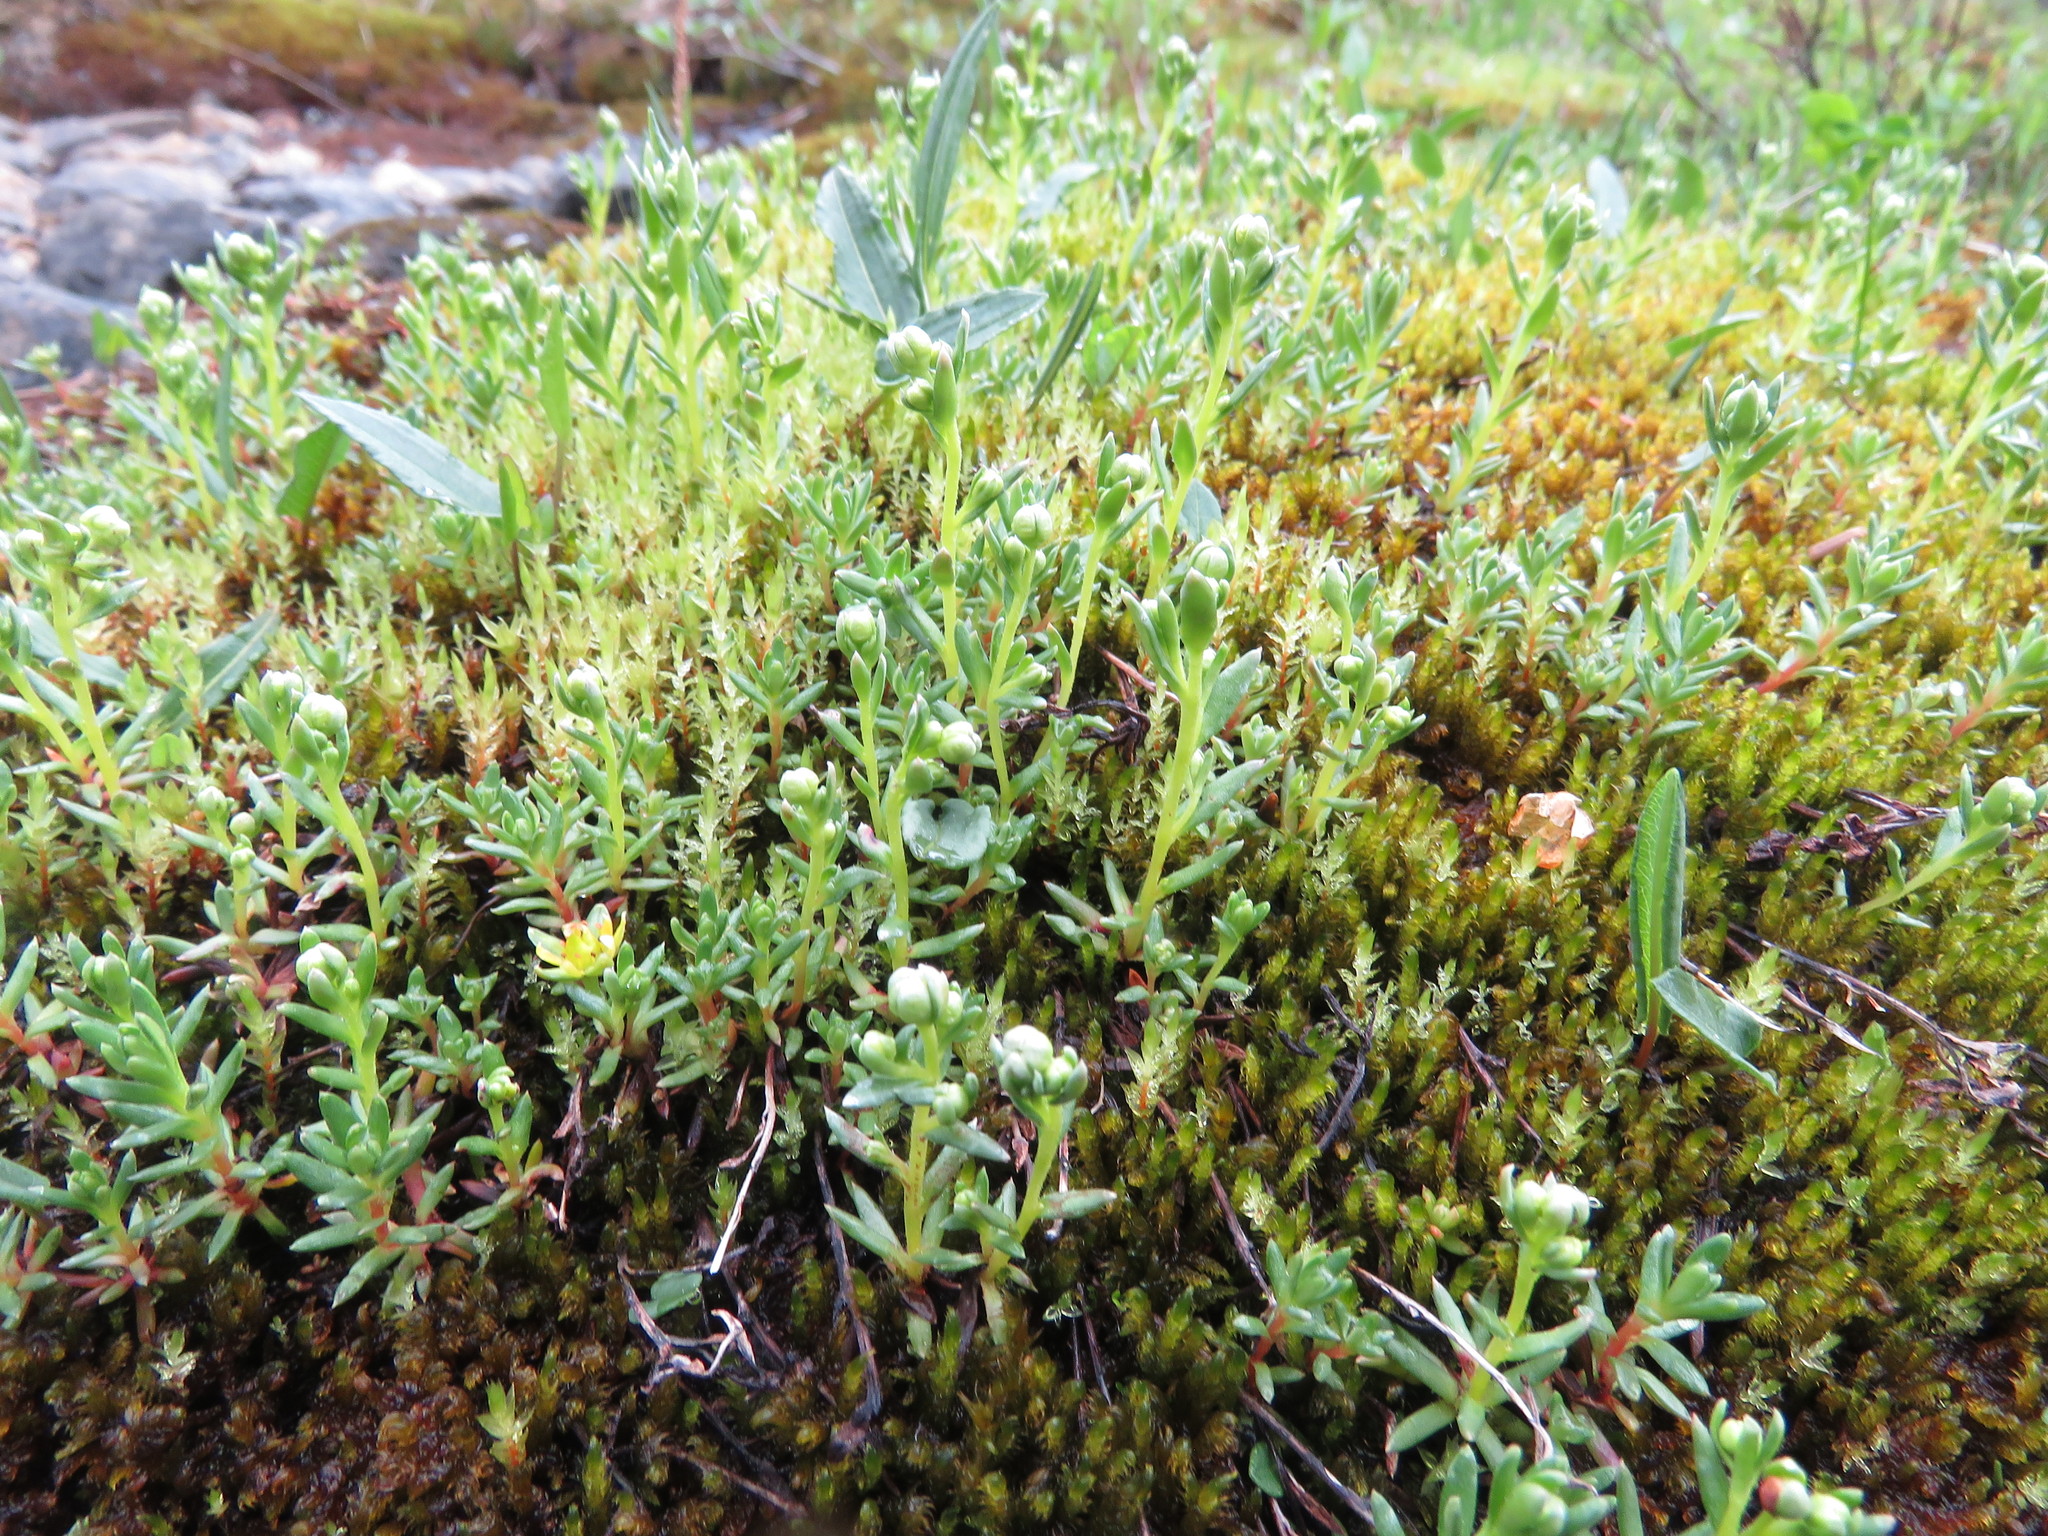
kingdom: Plantae
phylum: Tracheophyta
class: Magnoliopsida
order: Saxifragales
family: Saxifragaceae
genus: Saxifraga
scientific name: Saxifraga aizoides
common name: Yellow mountain saxifrage
